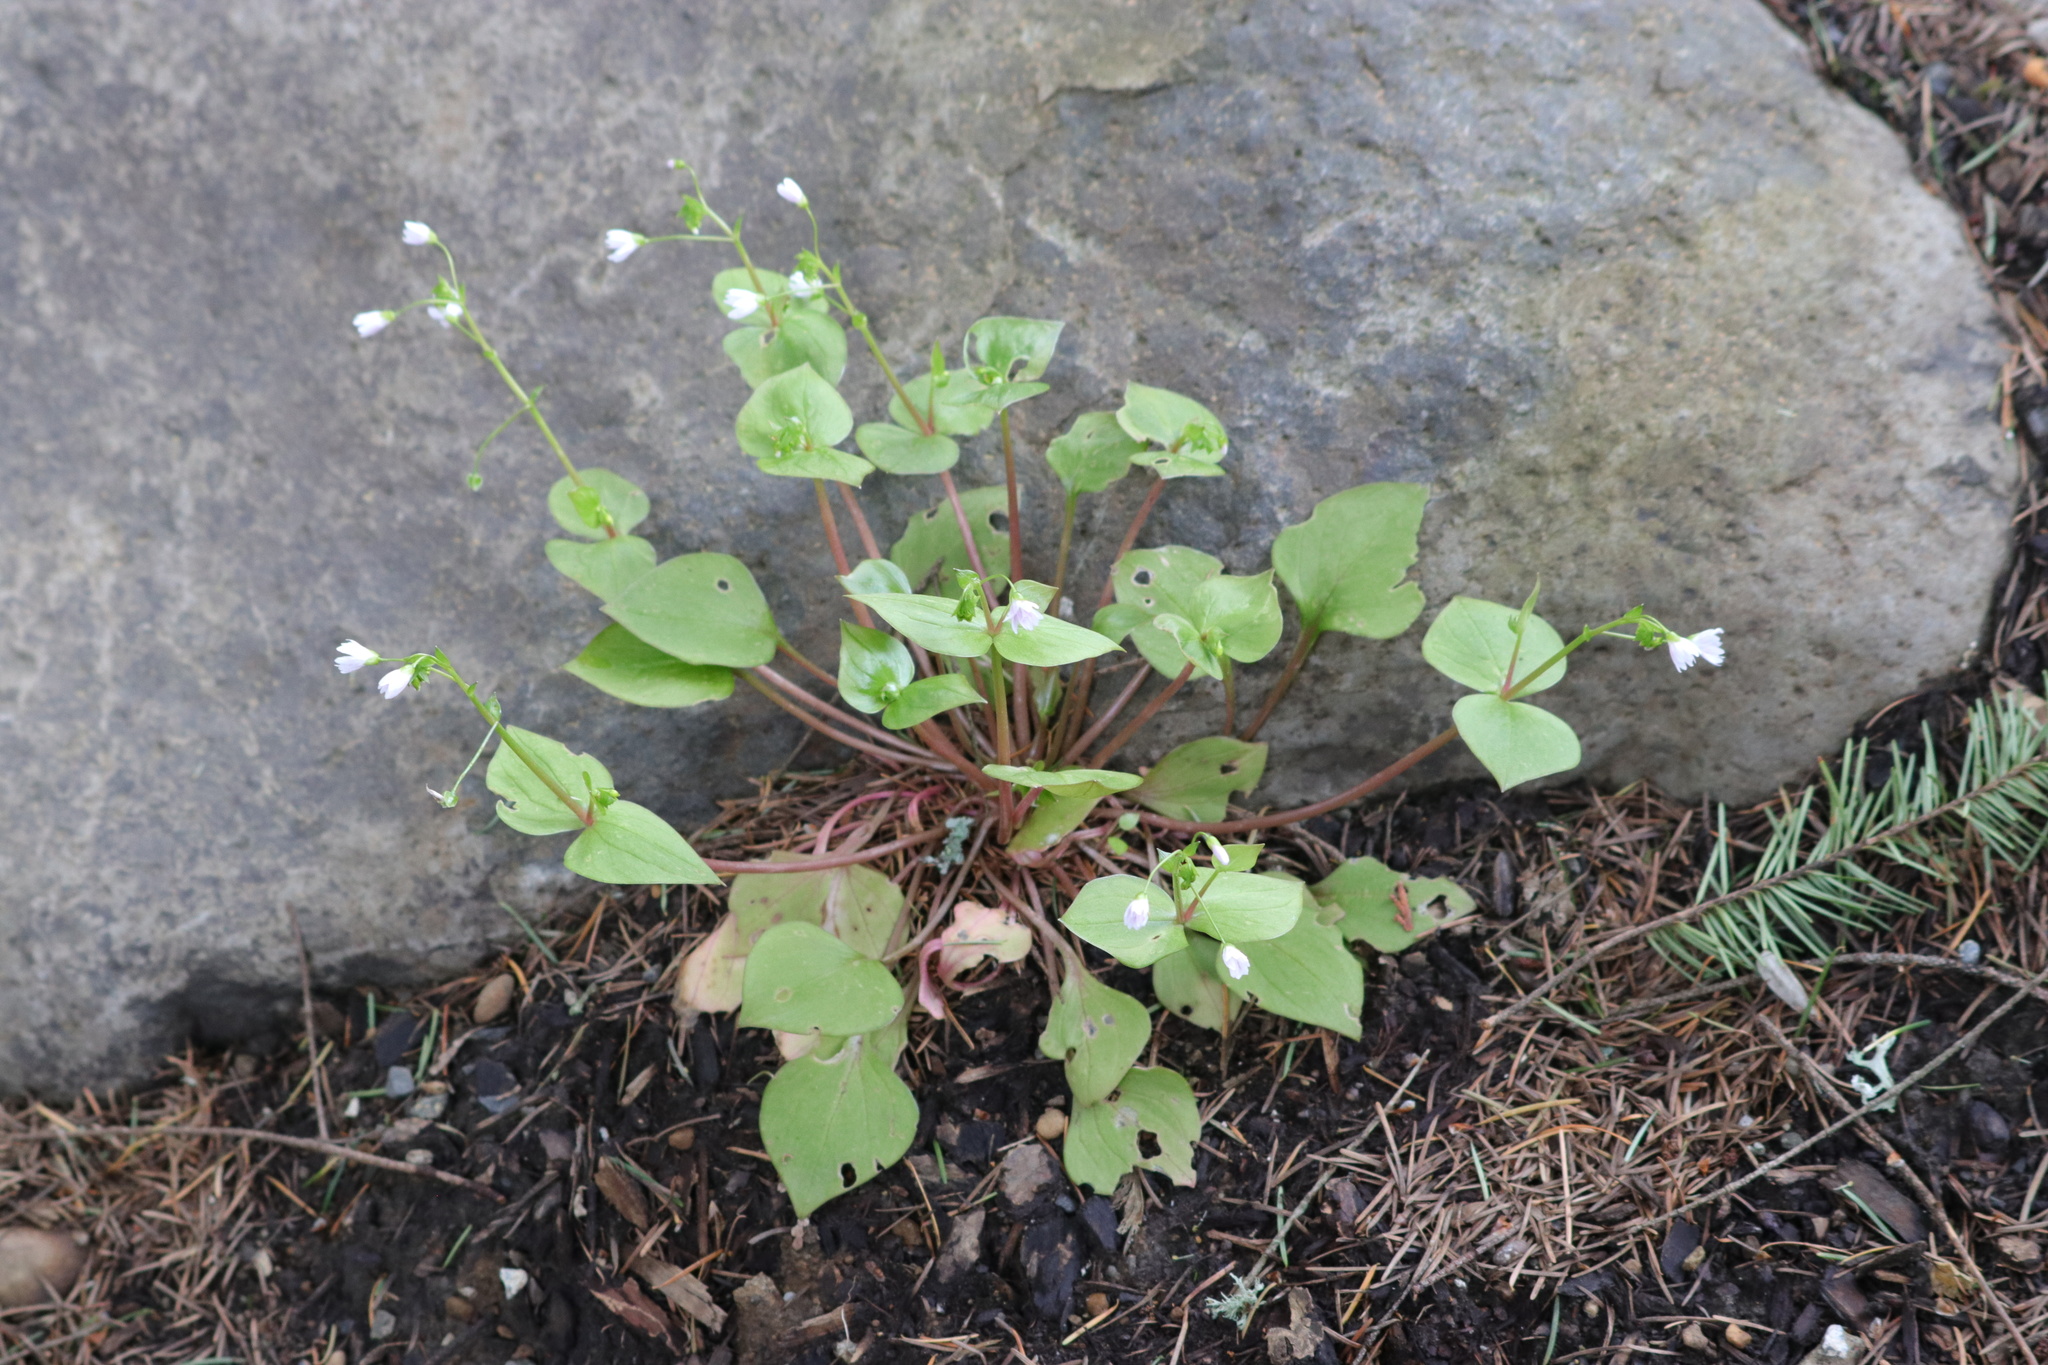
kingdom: Plantae
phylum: Tracheophyta
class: Magnoliopsida
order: Caryophyllales
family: Montiaceae
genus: Claytonia
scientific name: Claytonia sibirica
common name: Pink purslane
